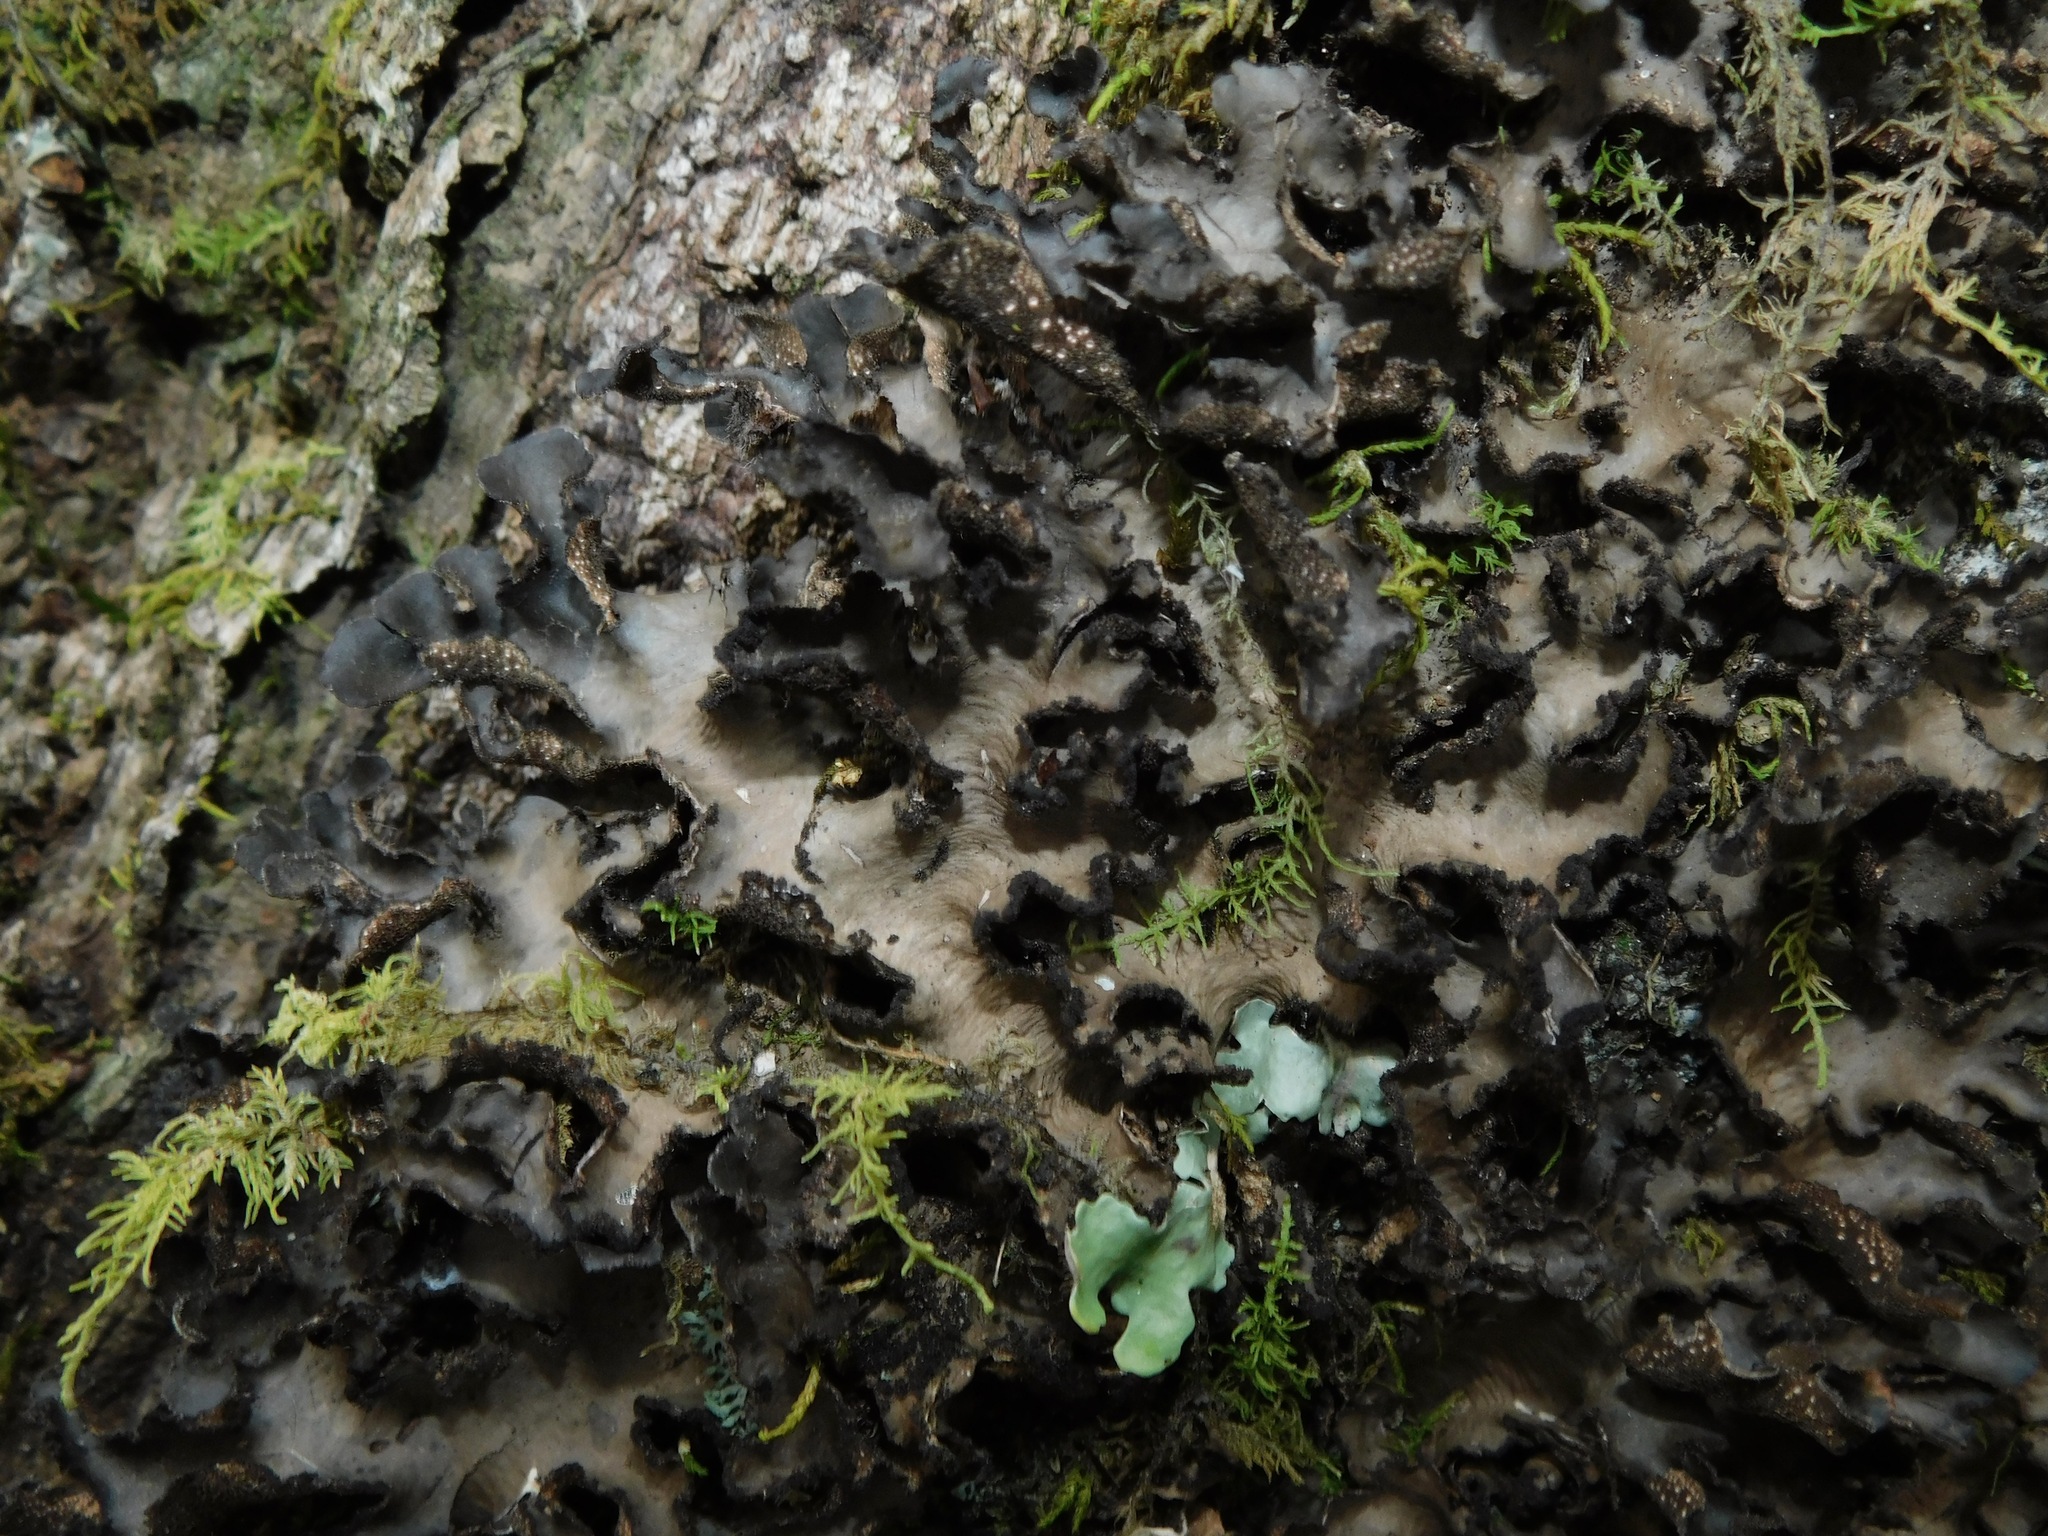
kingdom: Fungi
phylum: Ascomycota
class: Lecanoromycetes
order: Peltigerales
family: Lobariaceae
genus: Sticta
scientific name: Sticta beauvoisii
